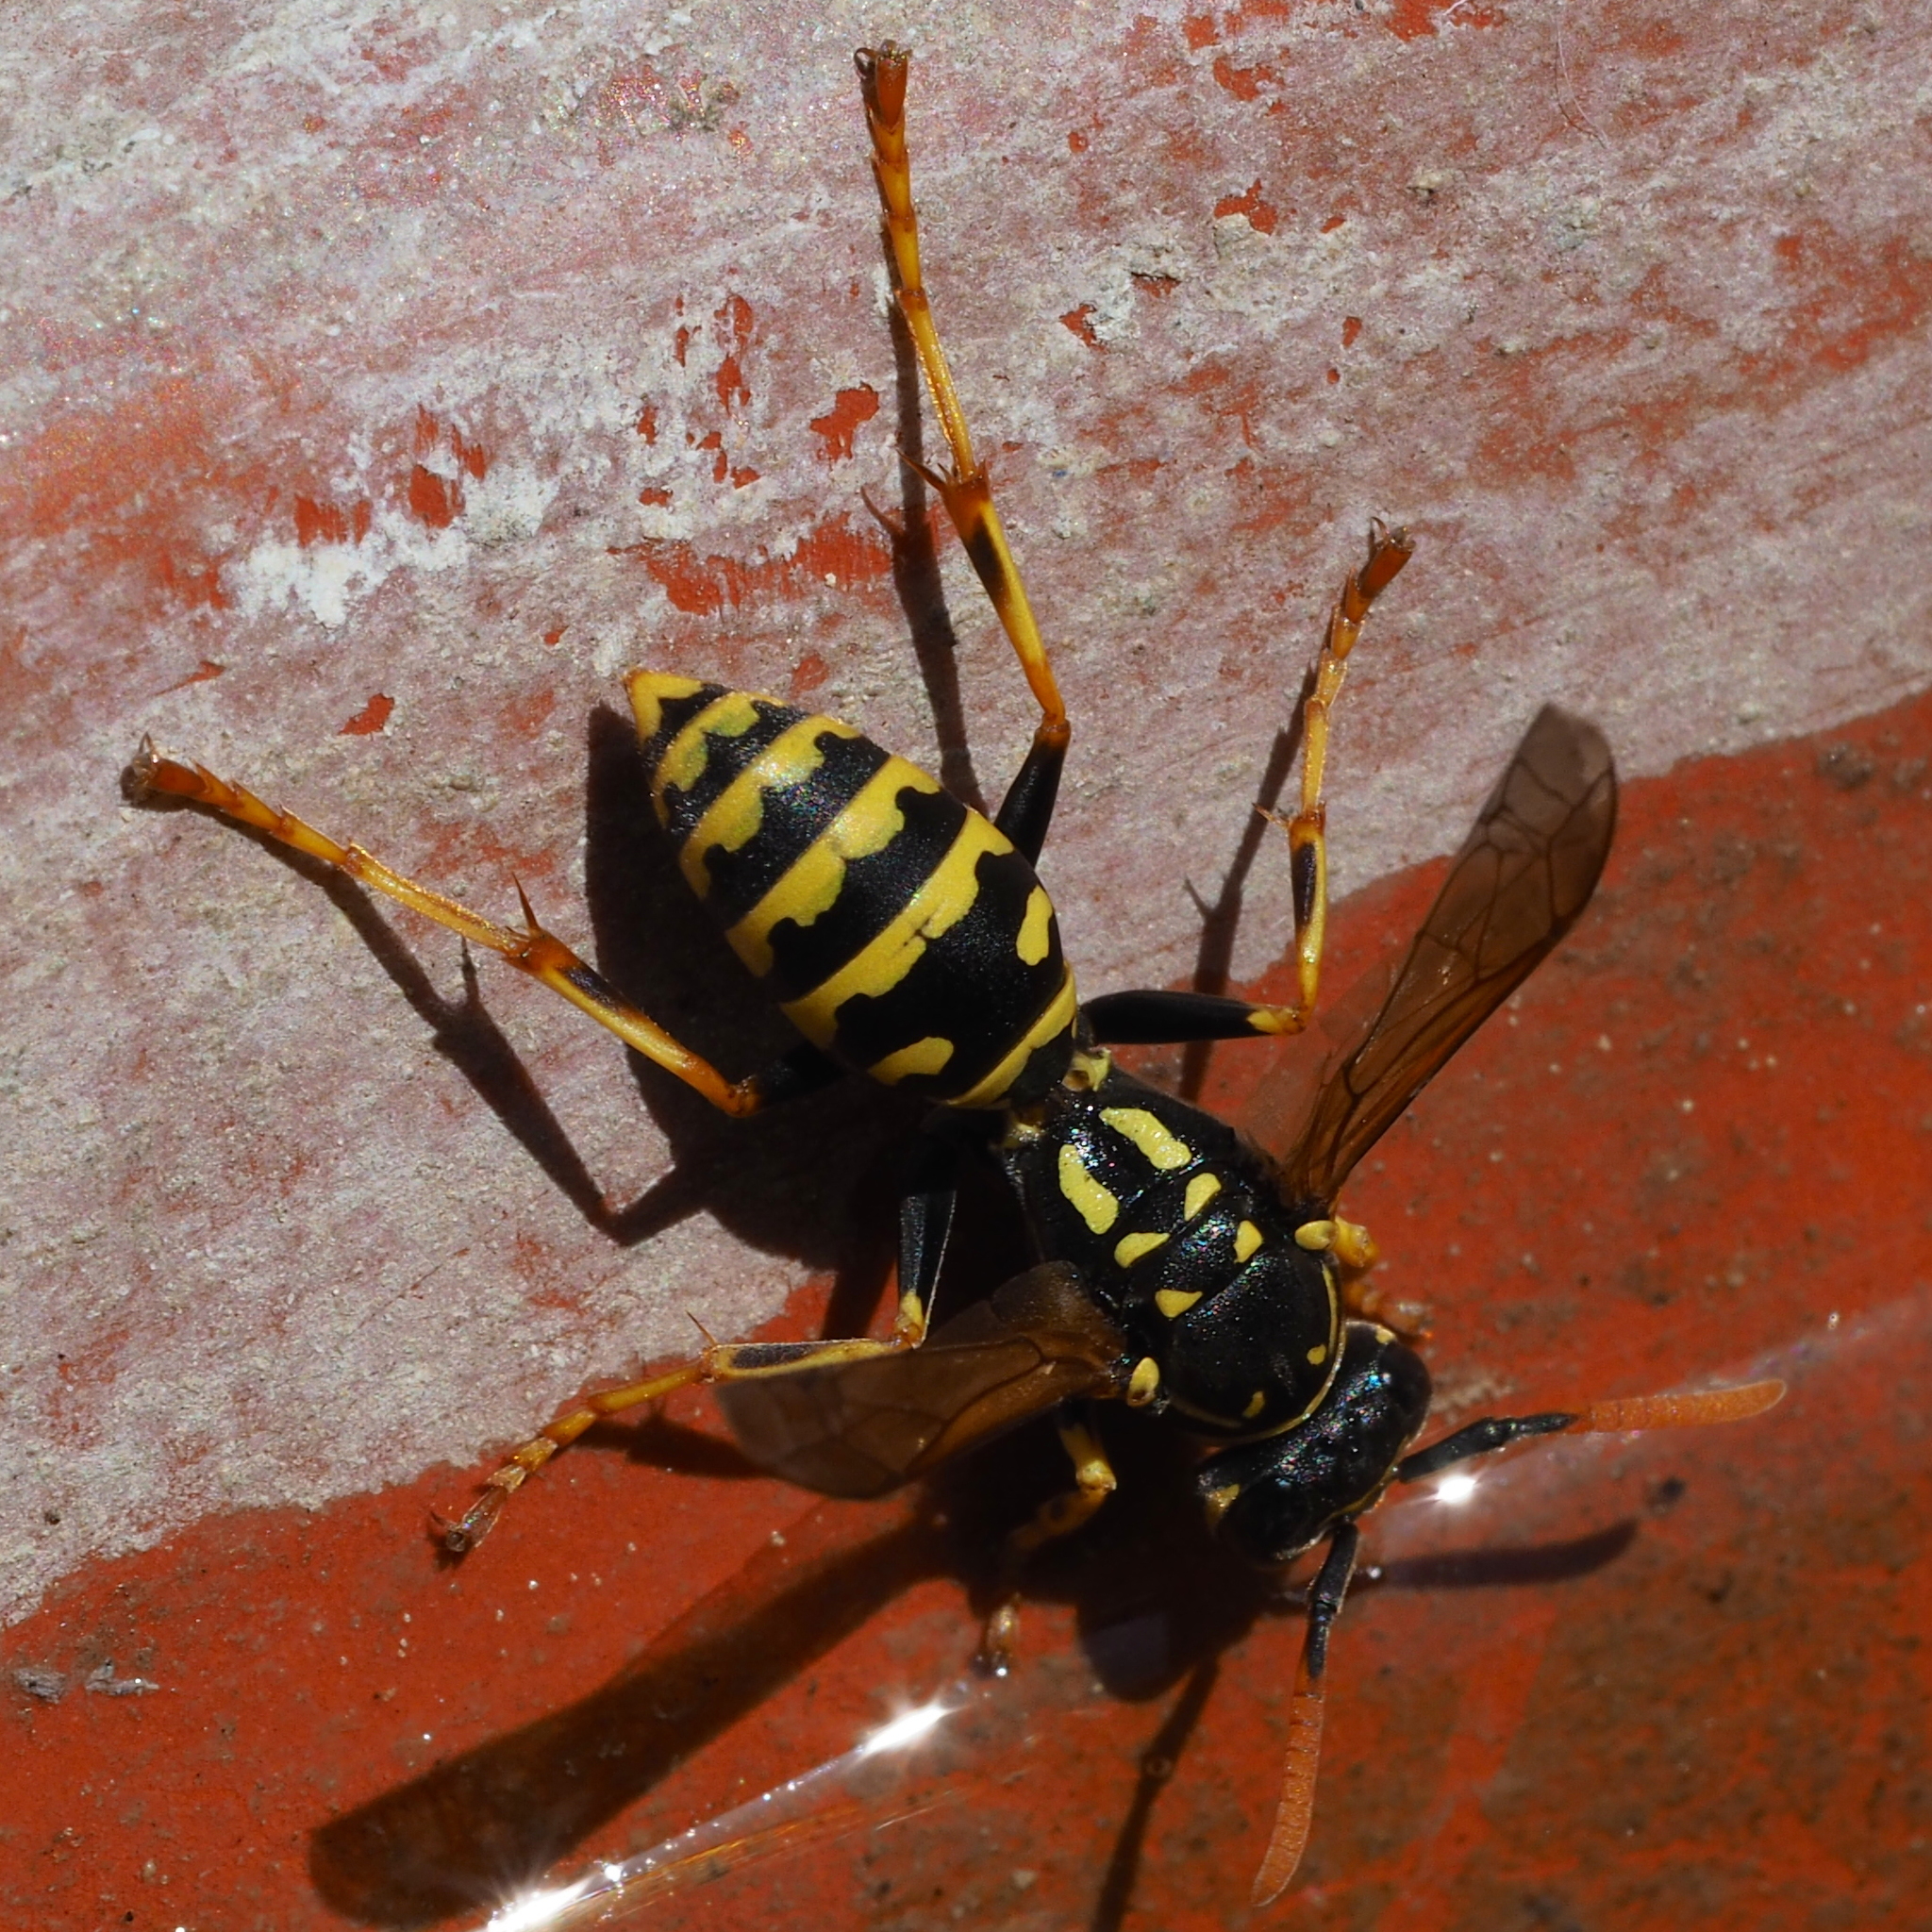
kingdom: Animalia
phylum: Arthropoda
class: Insecta
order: Hymenoptera
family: Eumenidae
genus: Polistes
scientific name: Polistes dominula
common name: Paper wasp
